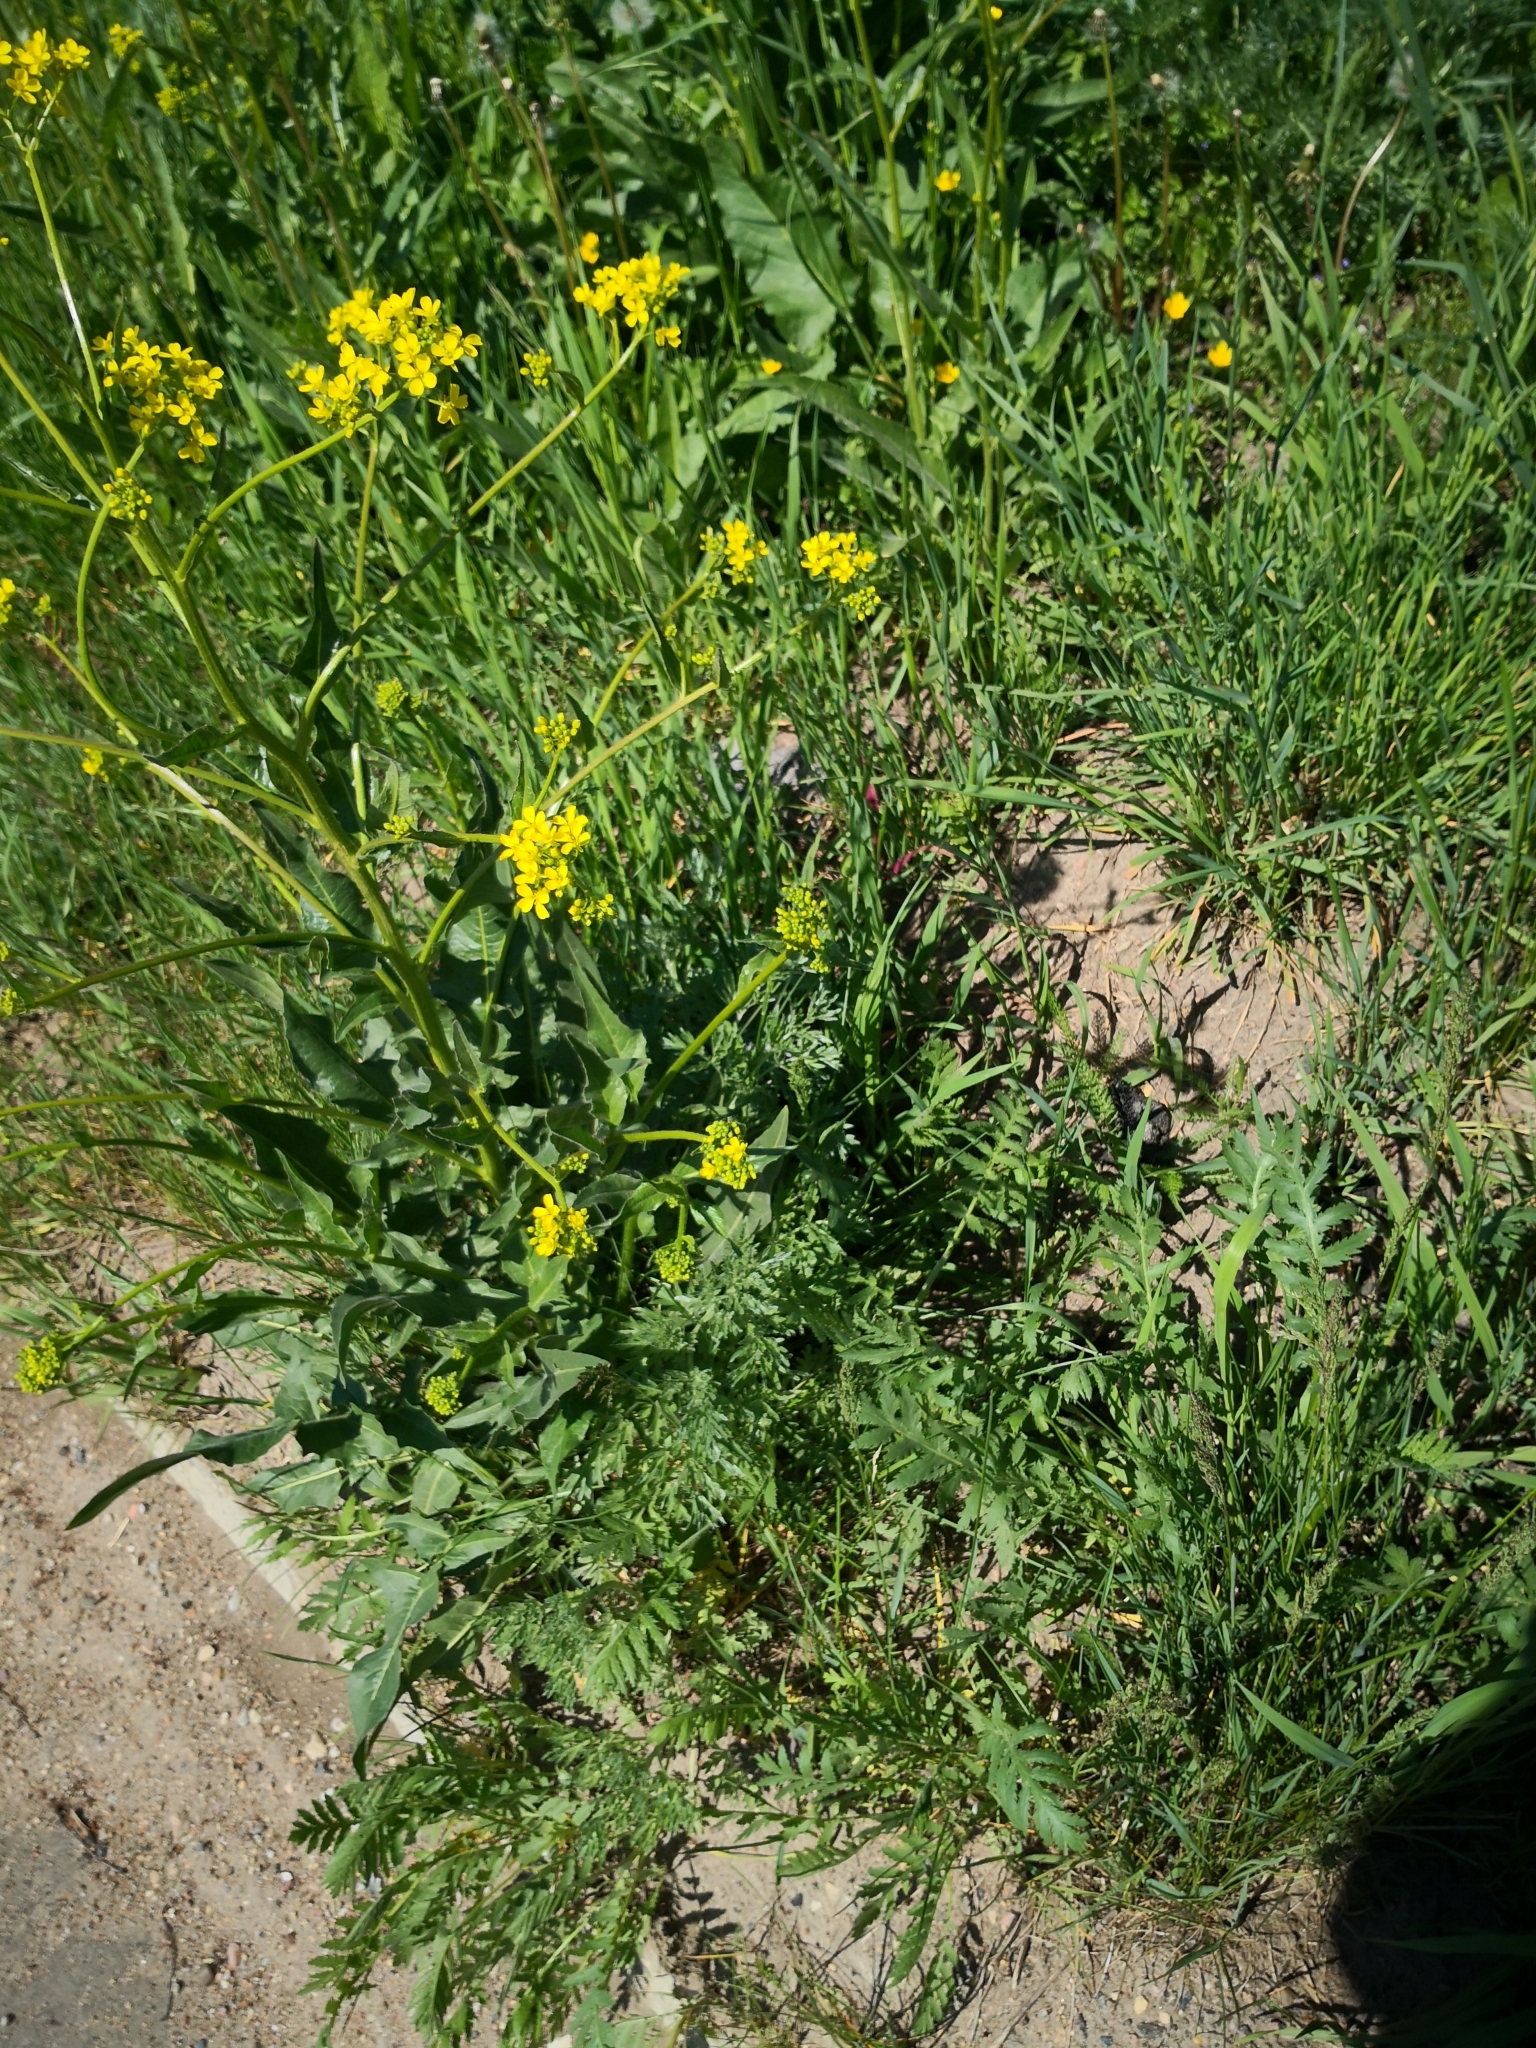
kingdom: Plantae
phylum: Tracheophyta
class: Magnoliopsida
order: Brassicales
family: Brassicaceae
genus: Bunias
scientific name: Bunias orientalis
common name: Warty-cabbage
